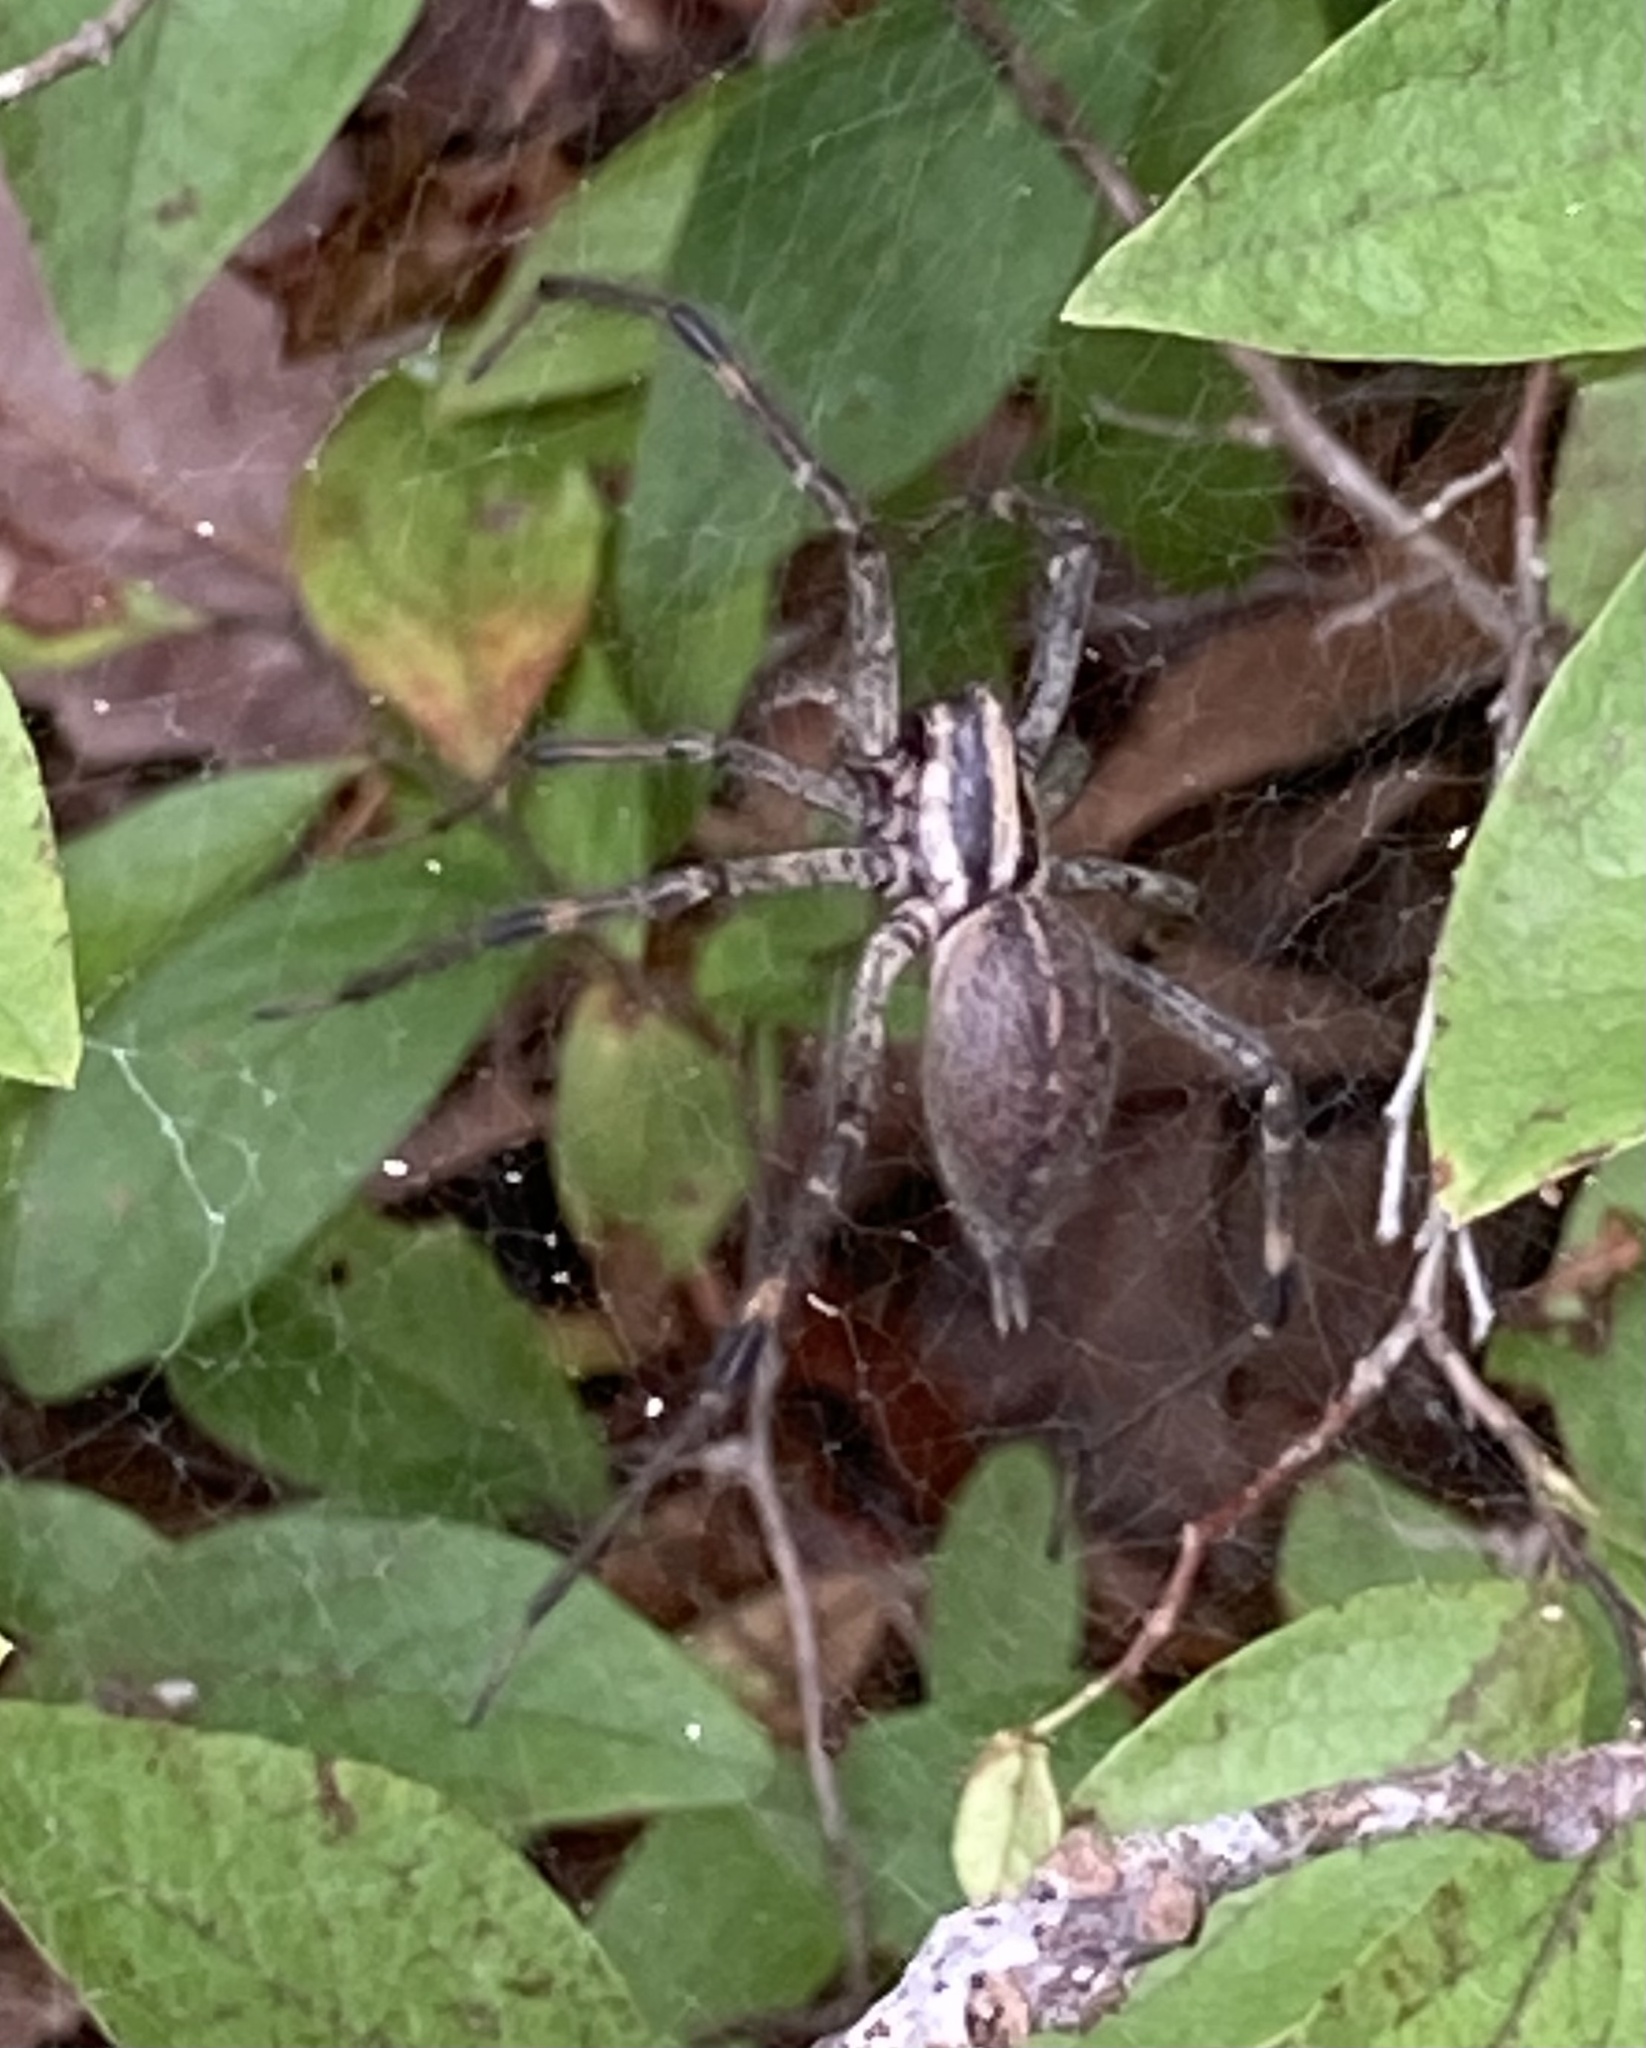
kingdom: Animalia
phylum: Arthropoda
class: Arachnida
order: Araneae
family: Agelenidae
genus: Agelenopsis
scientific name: Agelenopsis
